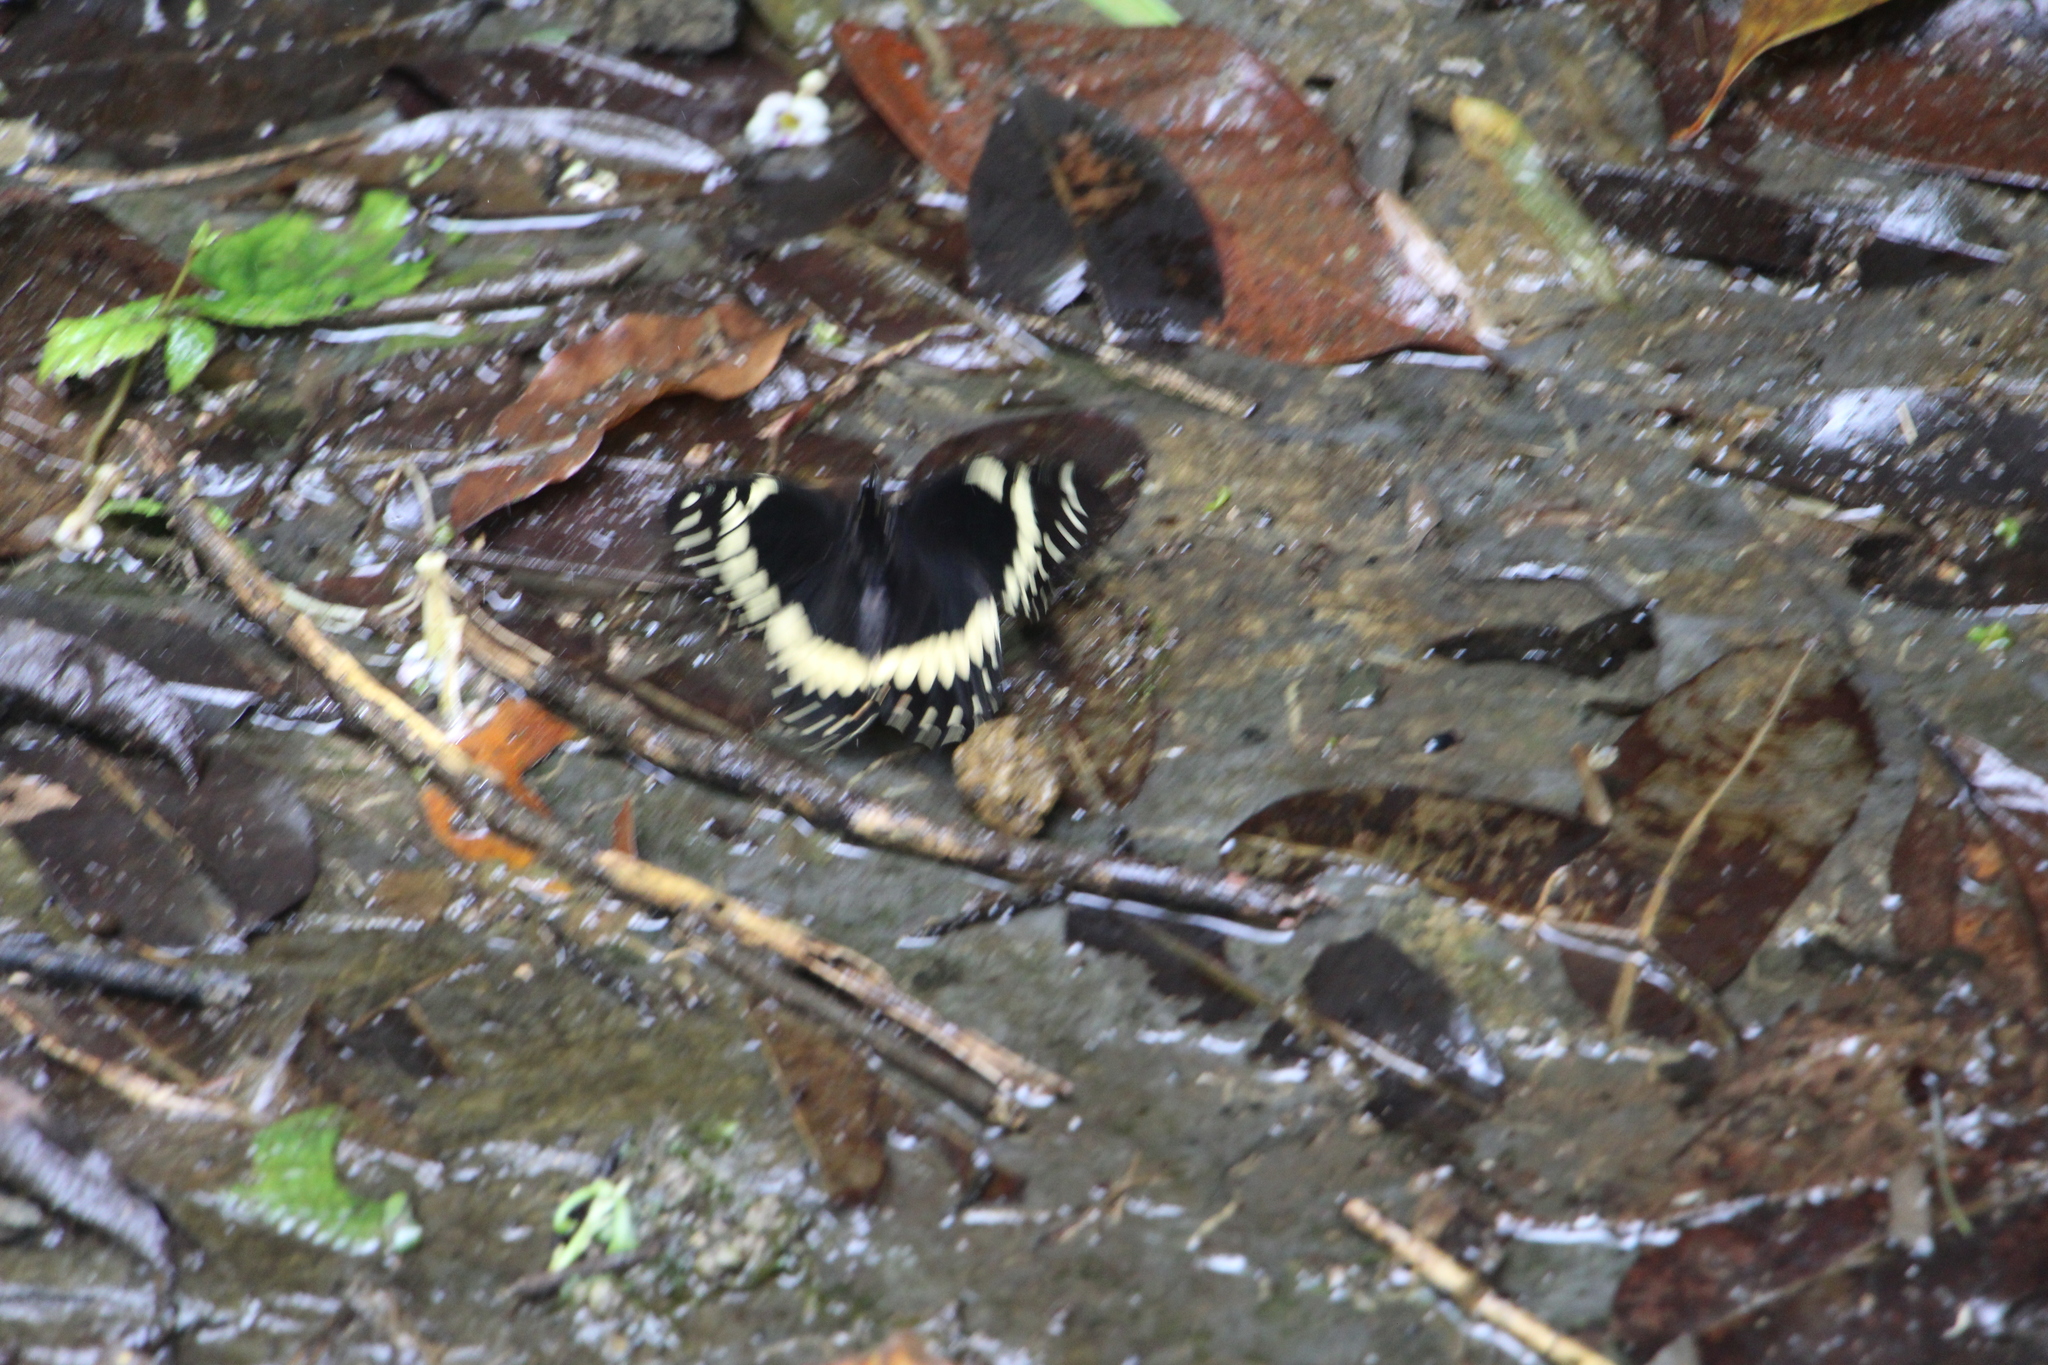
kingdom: Animalia
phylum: Arthropoda
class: Insecta
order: Lepidoptera
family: Papilionidae
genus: Papilio
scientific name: Papilio menatius
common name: Victorine swallowtail
